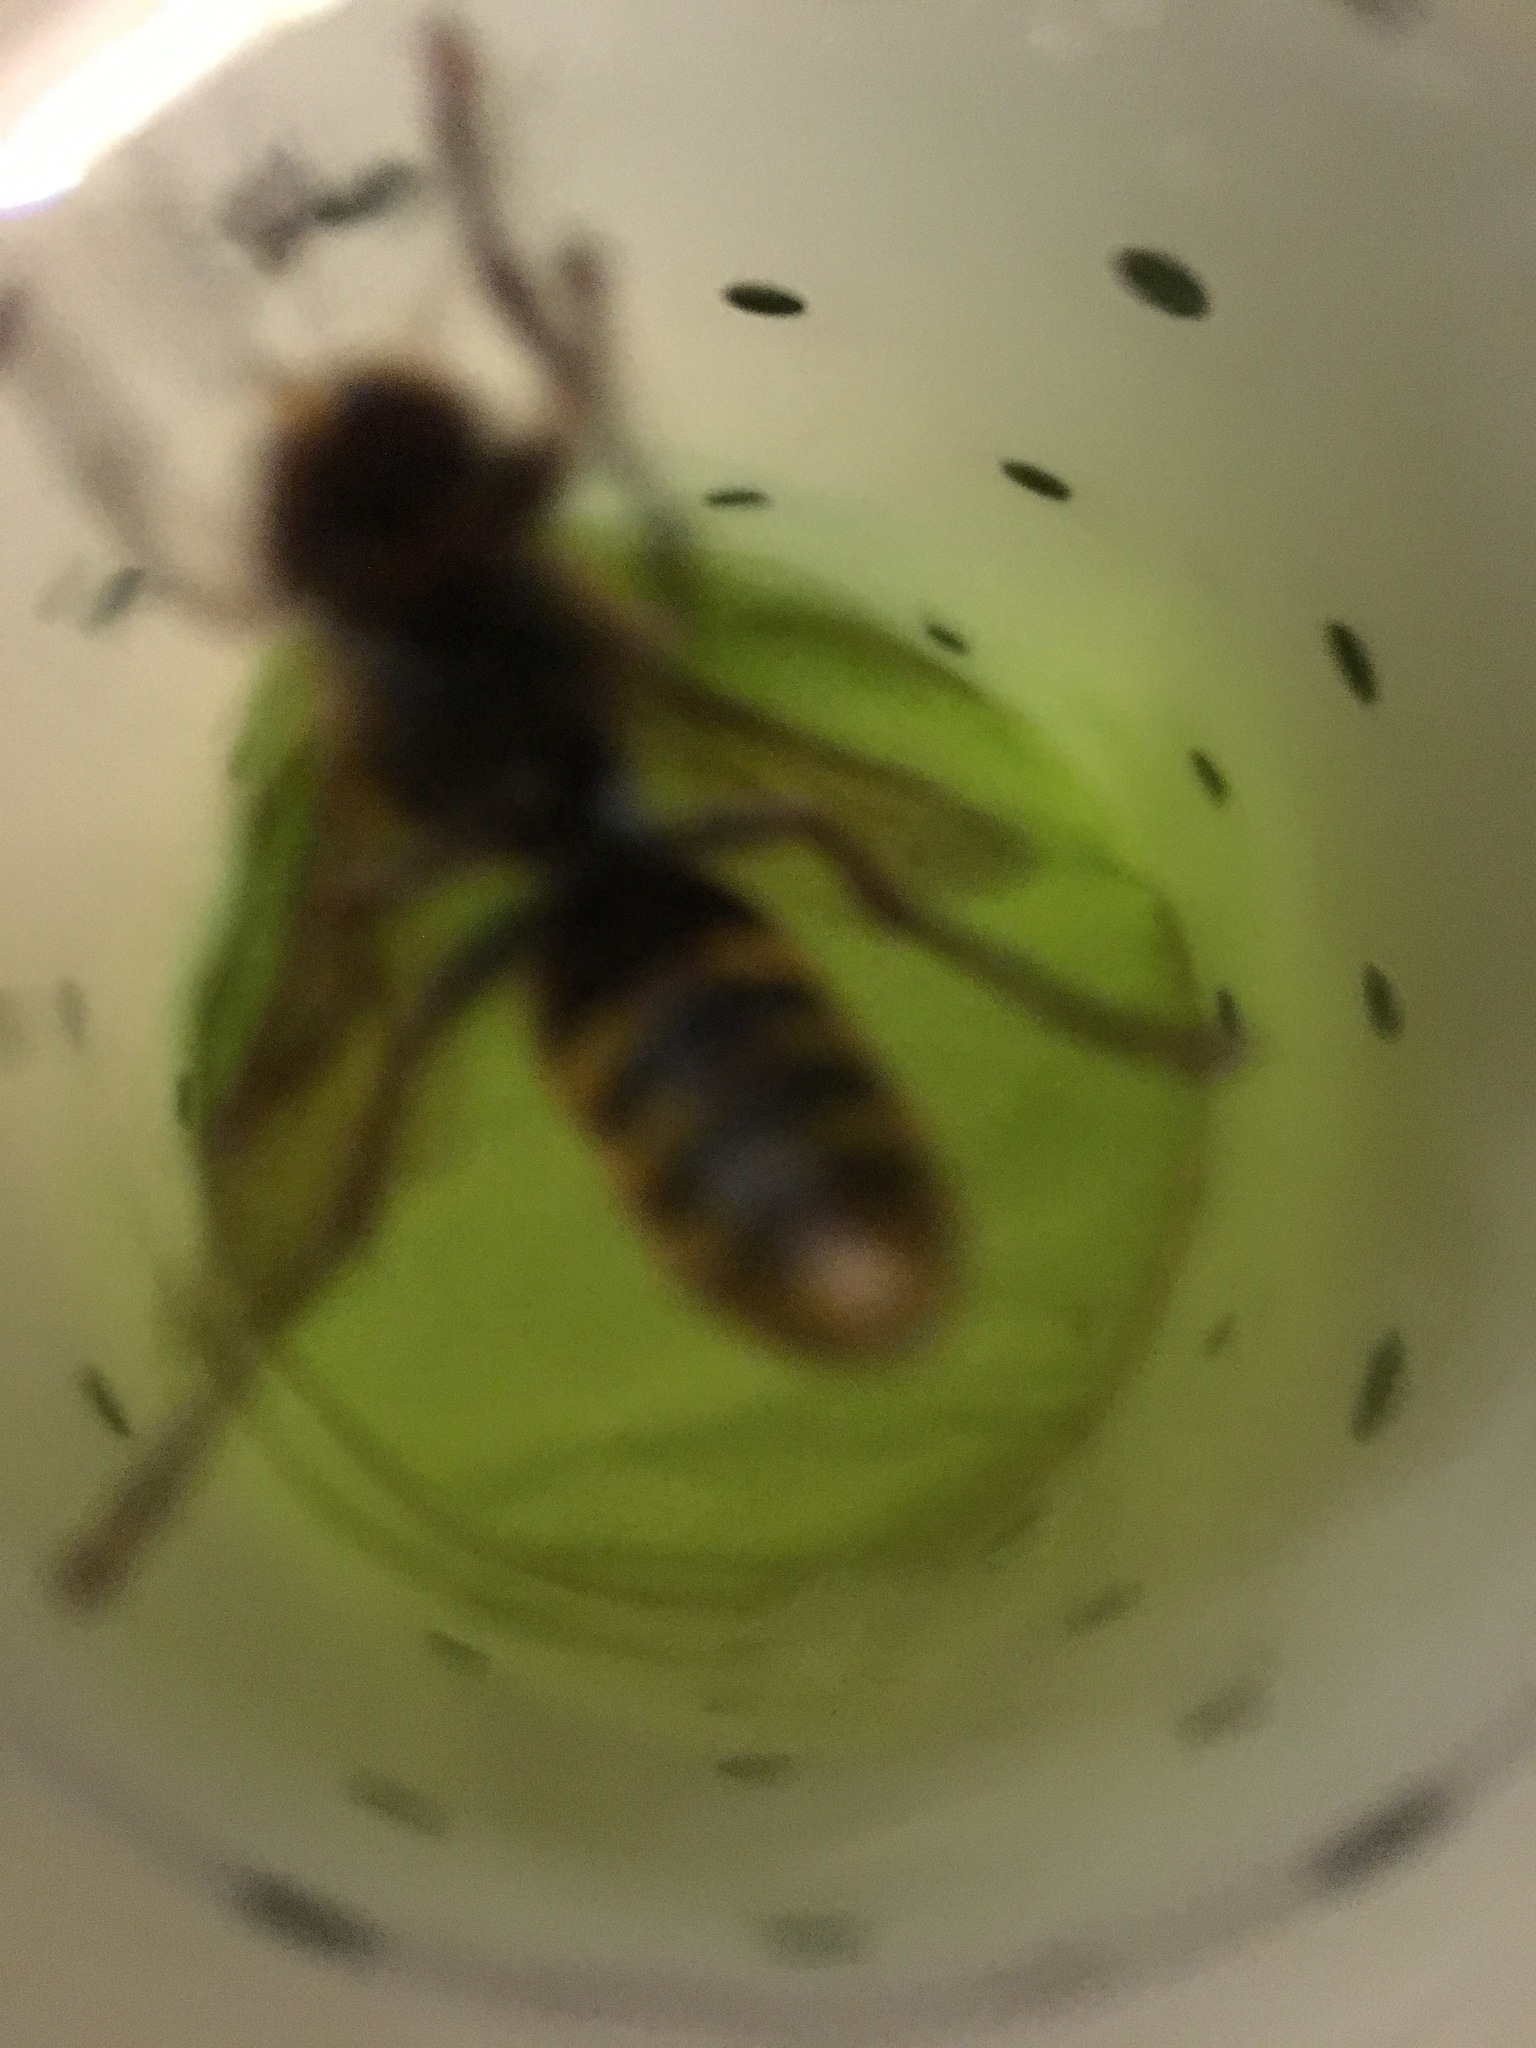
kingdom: Animalia
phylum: Arthropoda
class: Insecta
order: Hymenoptera
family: Vespidae
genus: Vespa
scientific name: Vespa crabro
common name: Hornet
